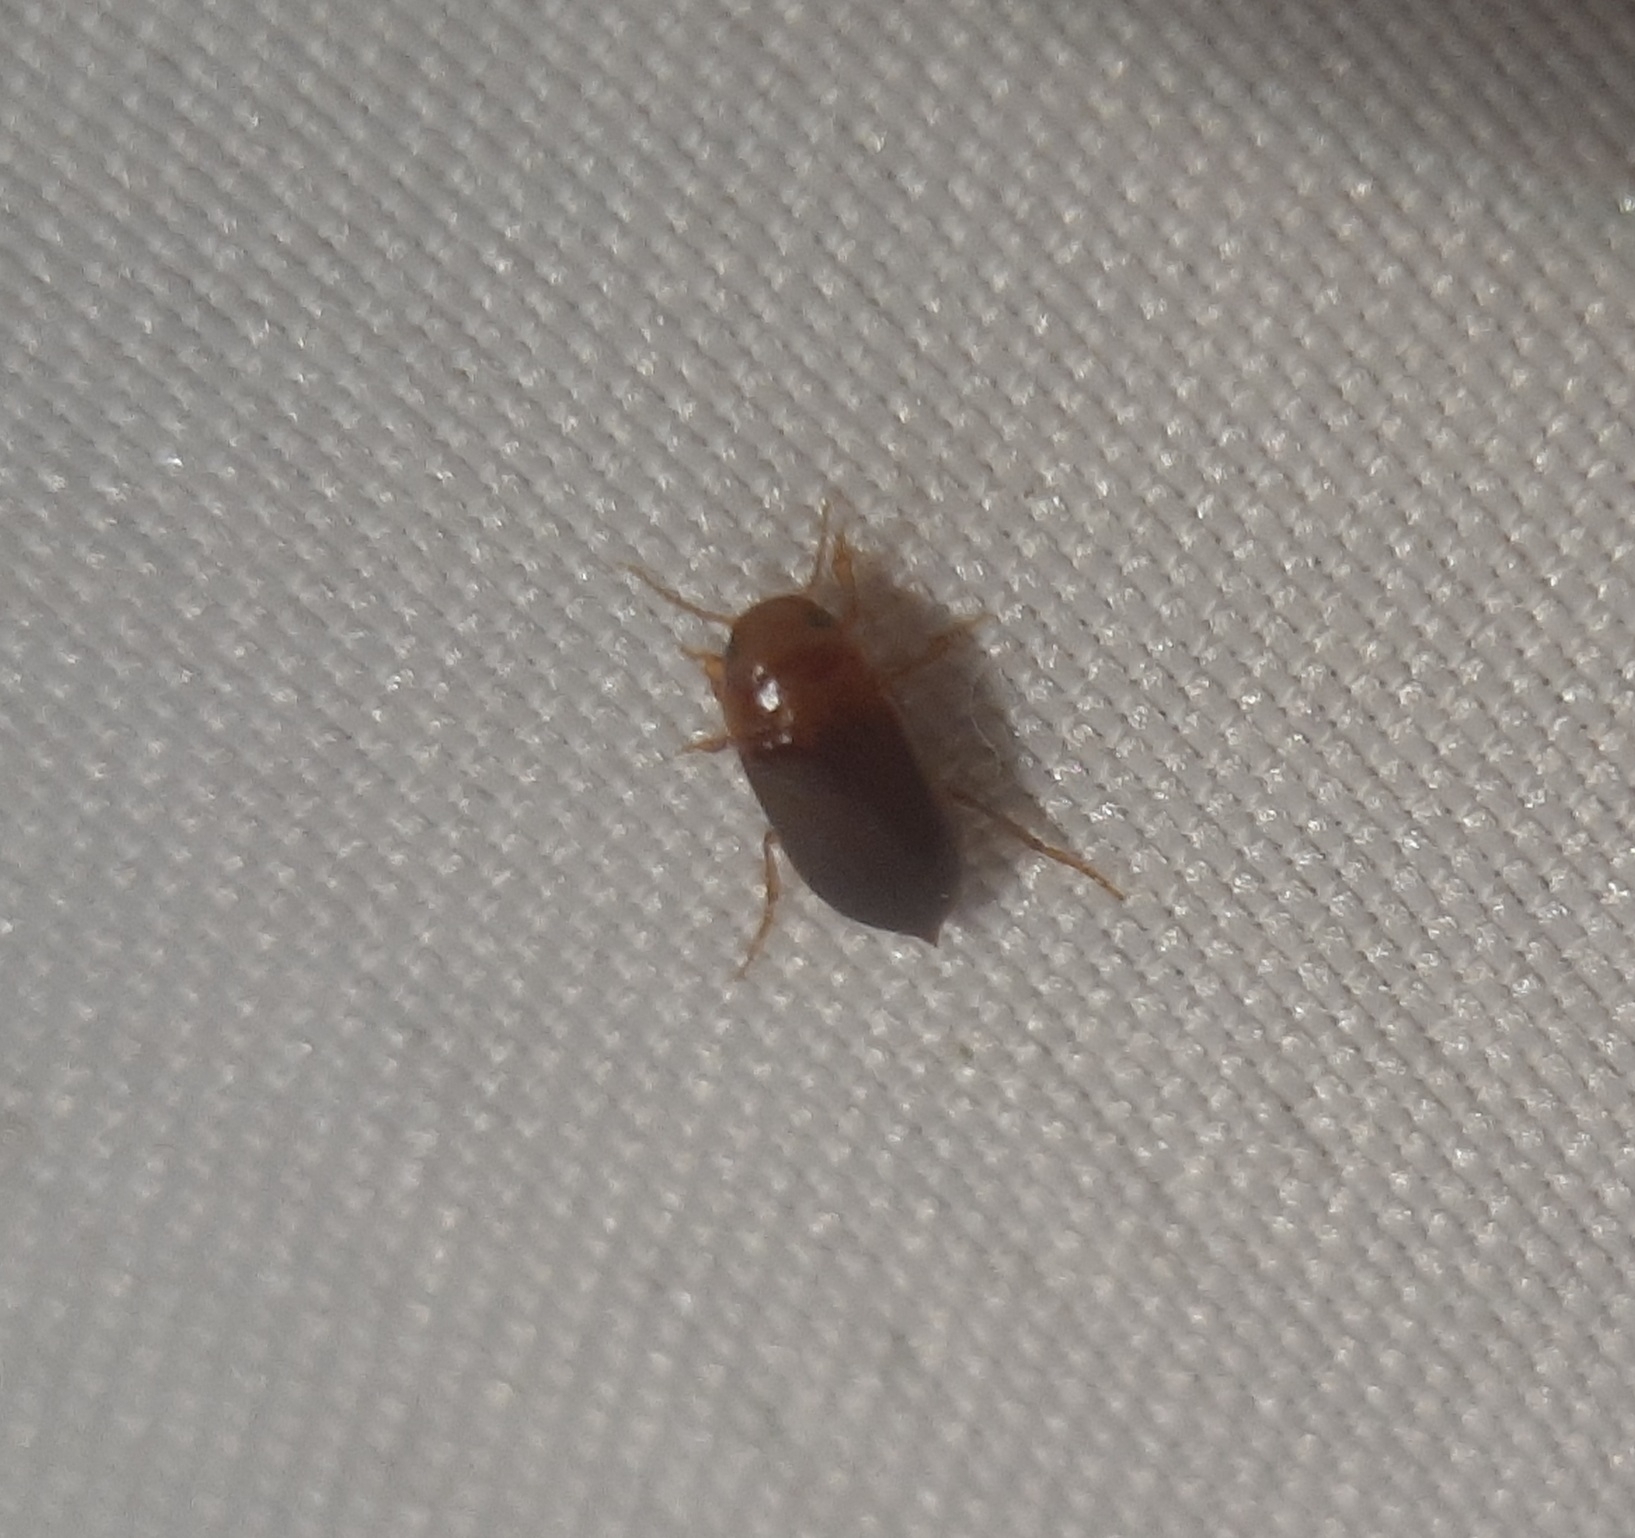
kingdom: Animalia
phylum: Arthropoda
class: Insecta
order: Coleoptera
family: Dytiscidae
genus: Celina
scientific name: Celina angustata
